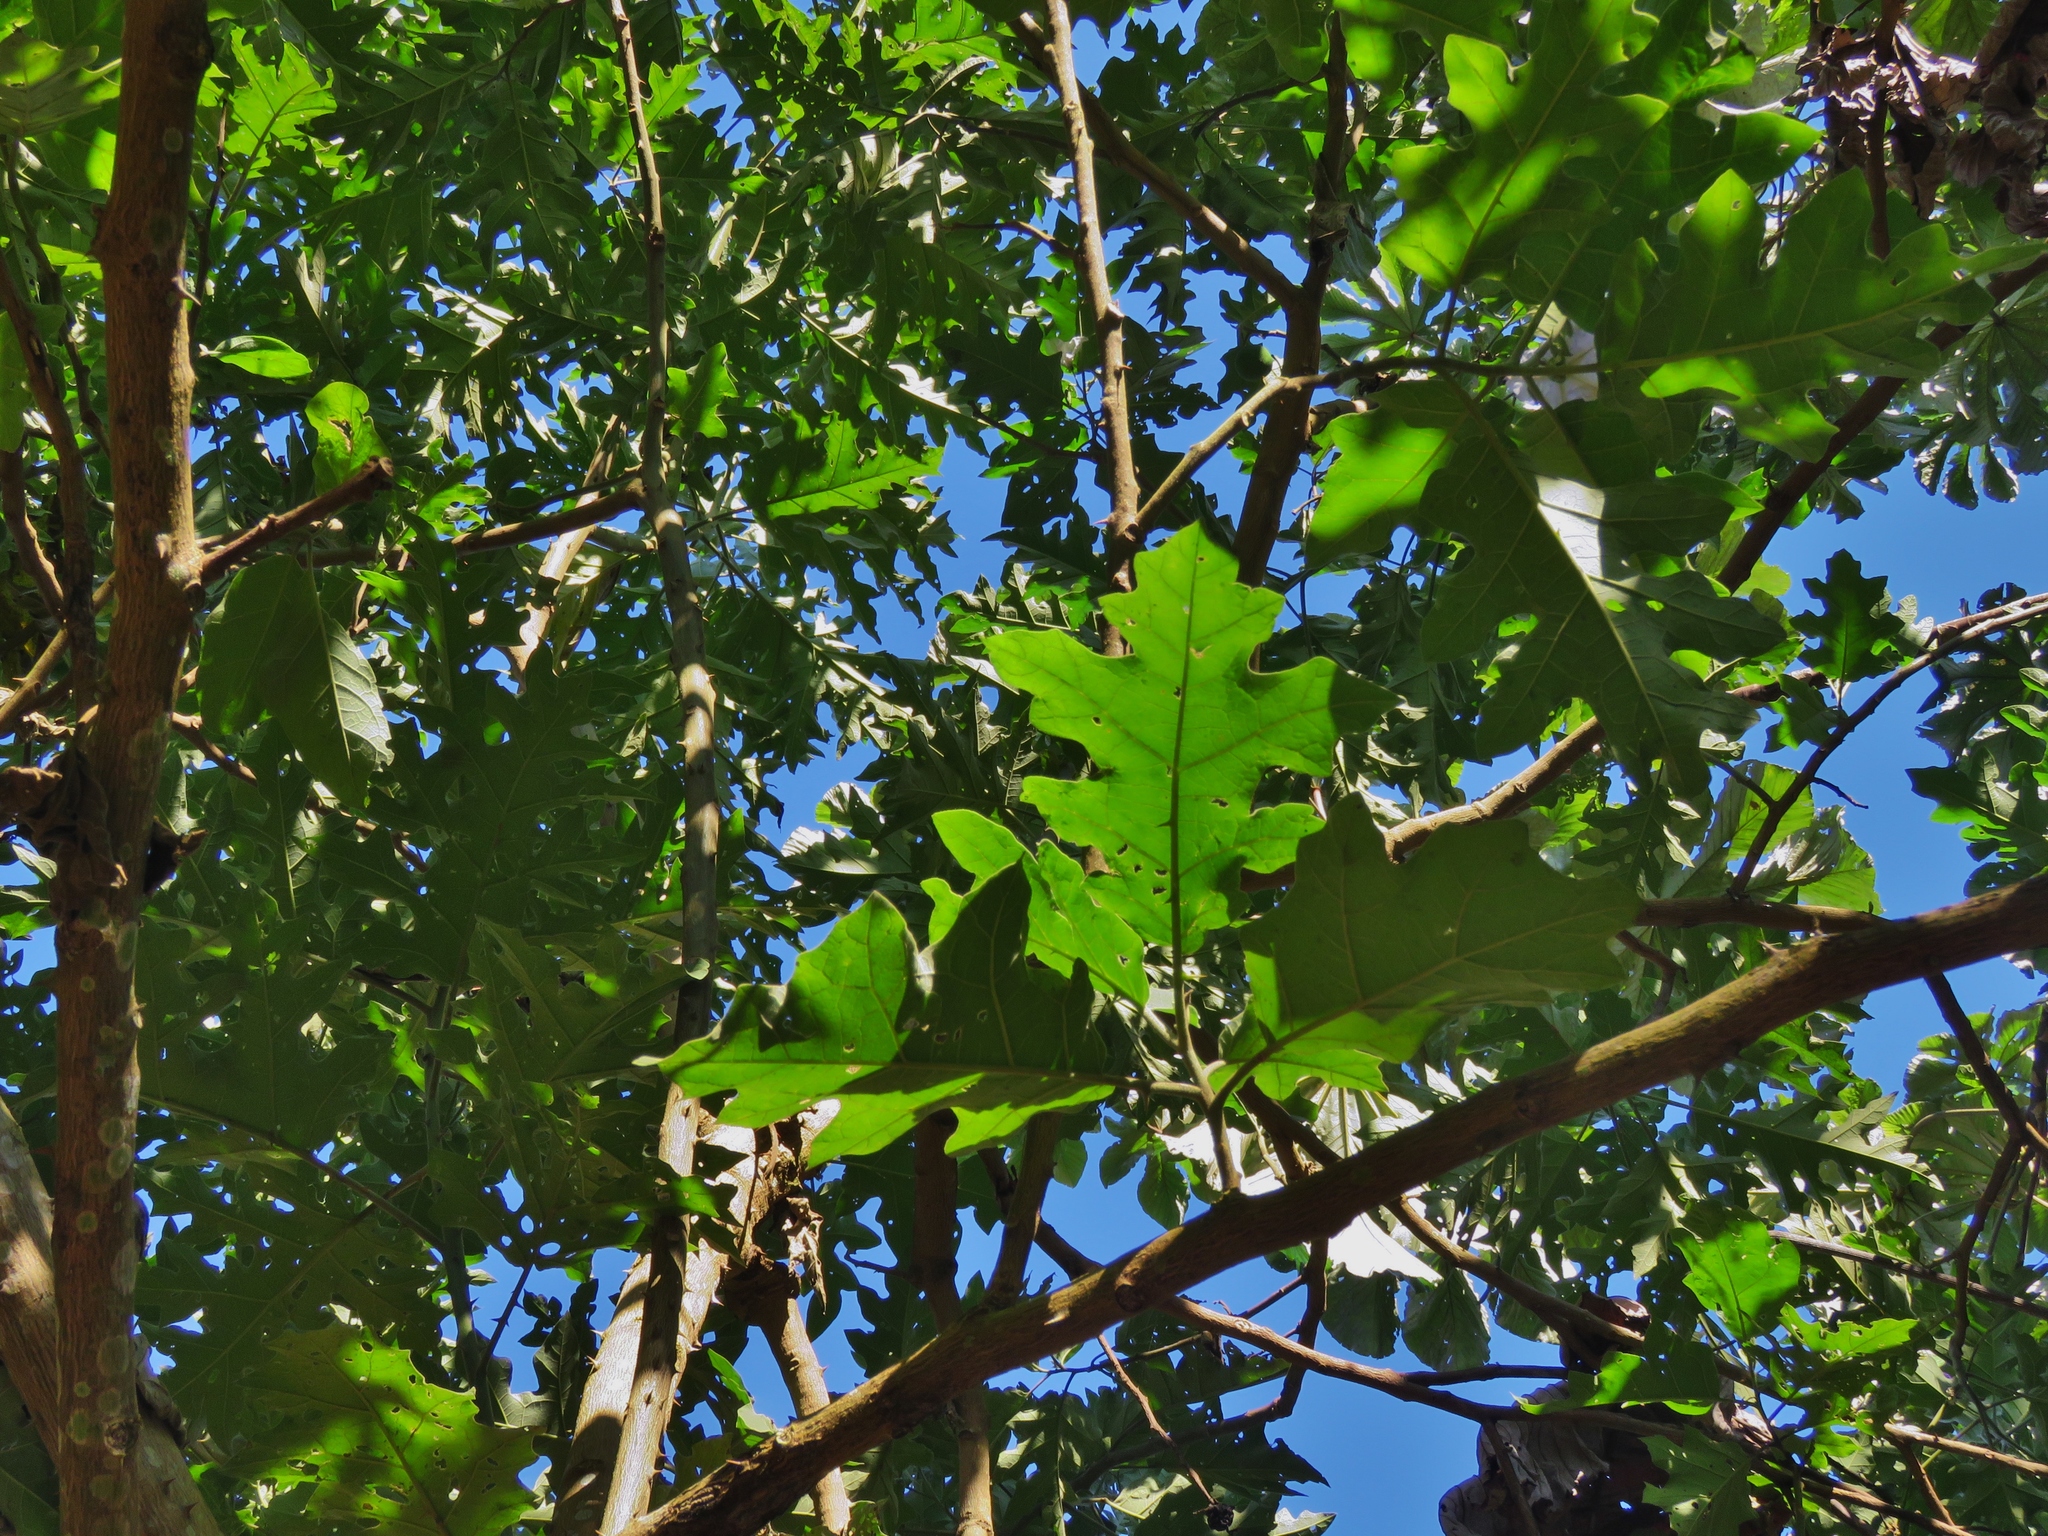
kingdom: Plantae
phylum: Tracheophyta
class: Magnoliopsida
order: Solanales
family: Solanaceae
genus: Solanum
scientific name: Solanum wrightii
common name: Brazilian potato-tree
